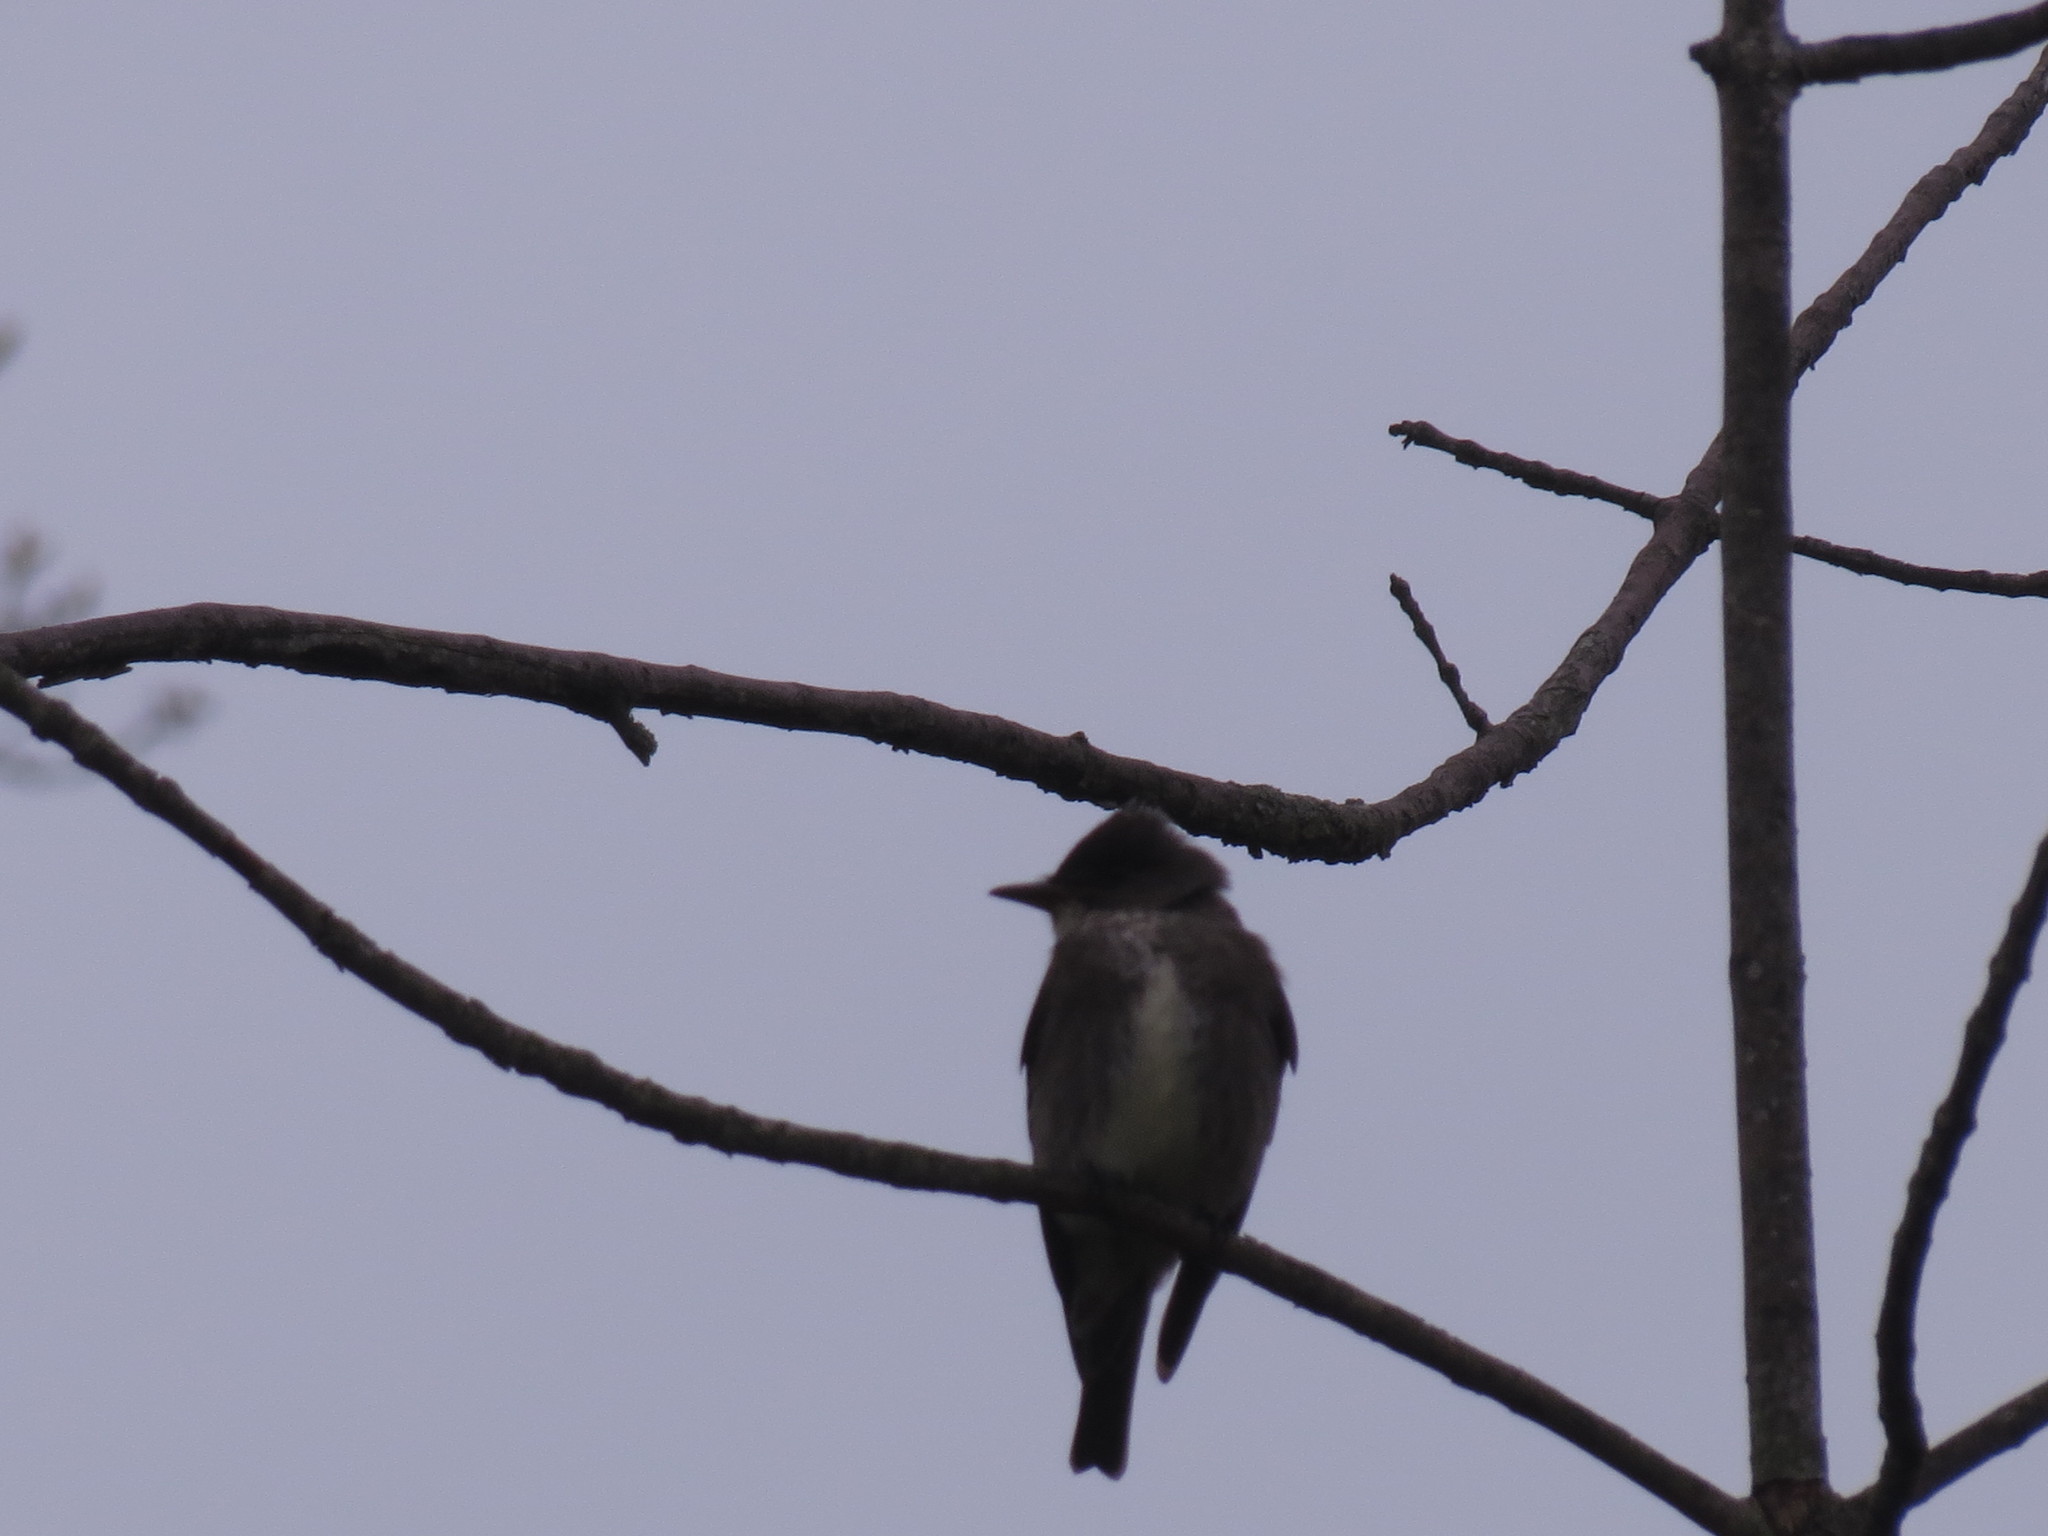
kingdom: Animalia
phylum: Chordata
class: Aves
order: Passeriformes
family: Tyrannidae
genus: Contopus
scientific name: Contopus cooperi
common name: Olive-sided flycatcher
